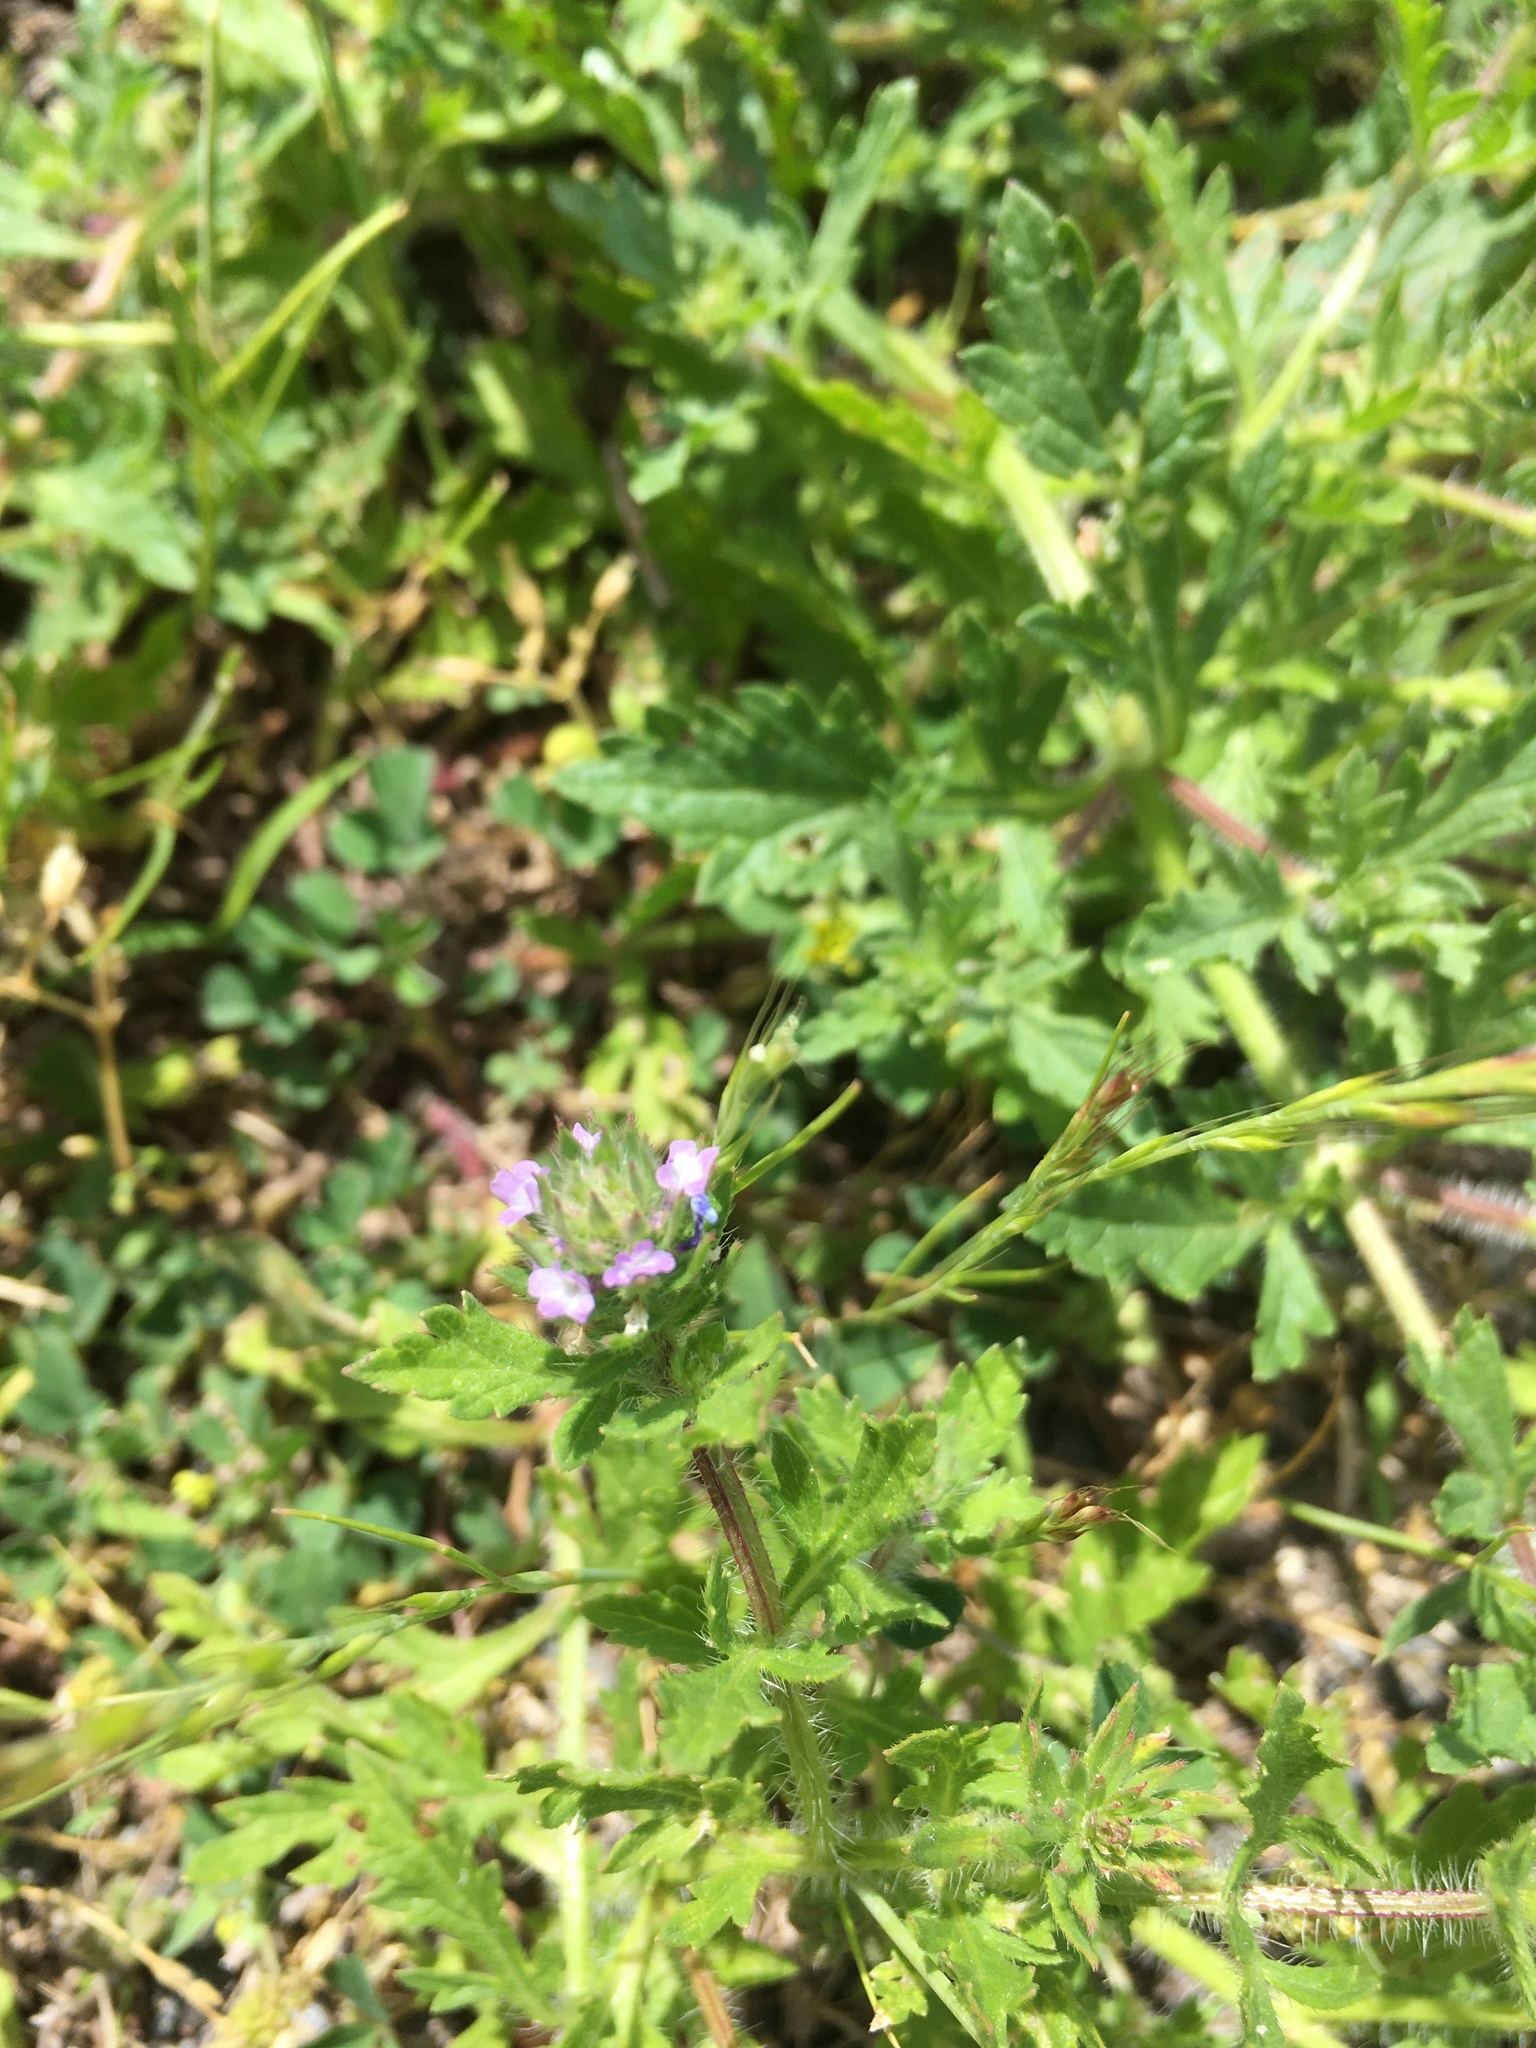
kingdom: Plantae
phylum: Tracheophyta
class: Magnoliopsida
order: Lamiales
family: Verbenaceae
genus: Verbena
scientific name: Verbena bracteata
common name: Bracted vervain
